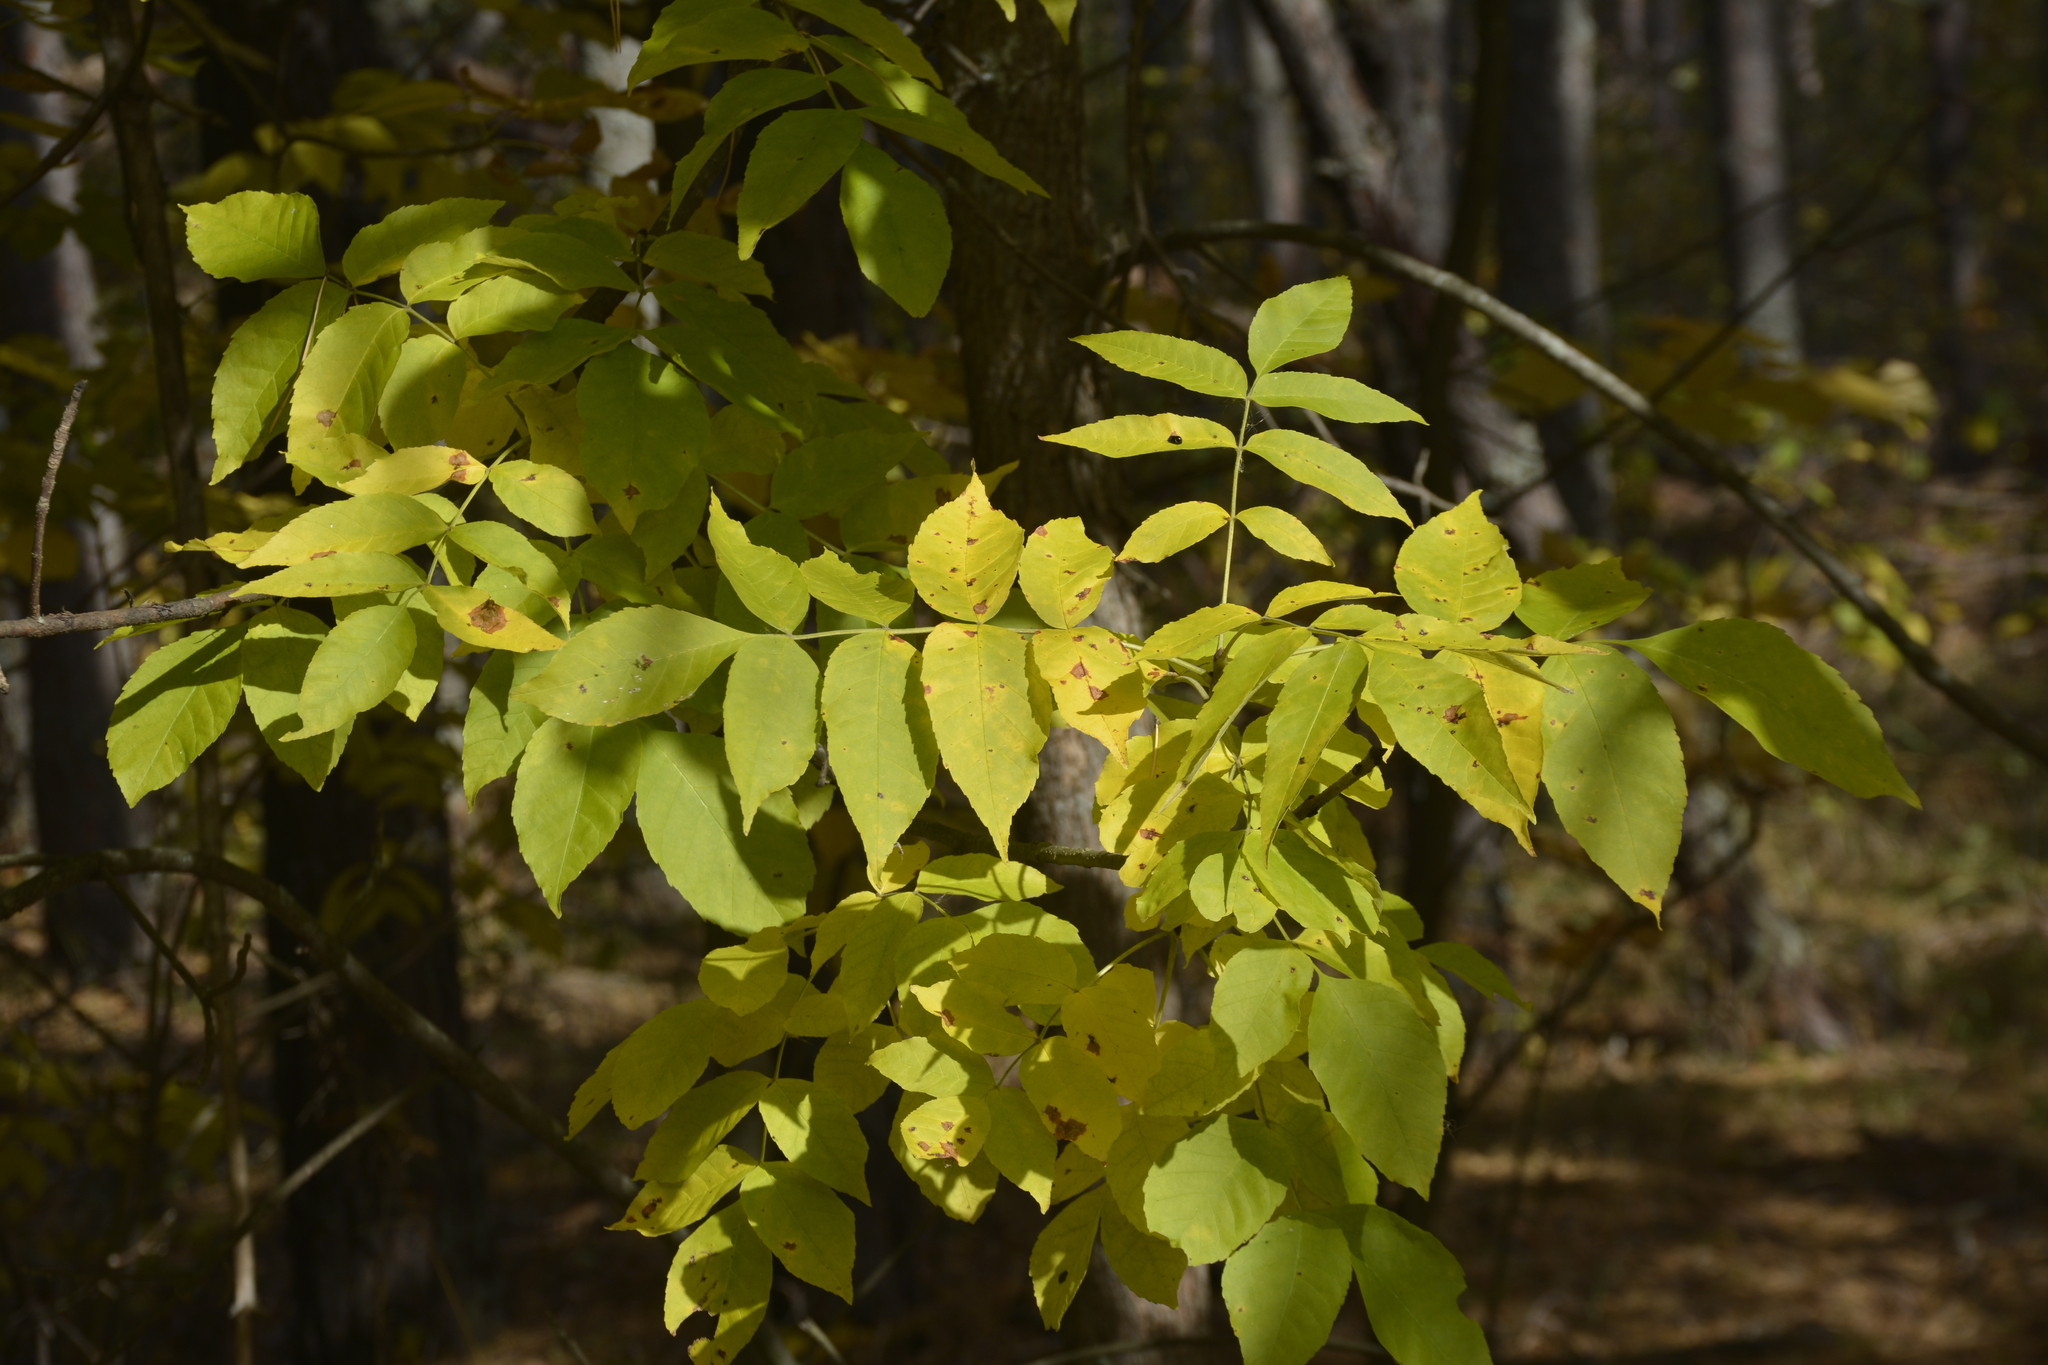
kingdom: Plantae
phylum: Tracheophyta
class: Magnoliopsida
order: Lamiales
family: Oleaceae
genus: Fraxinus
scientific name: Fraxinus pennsylvanica
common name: Green ash
